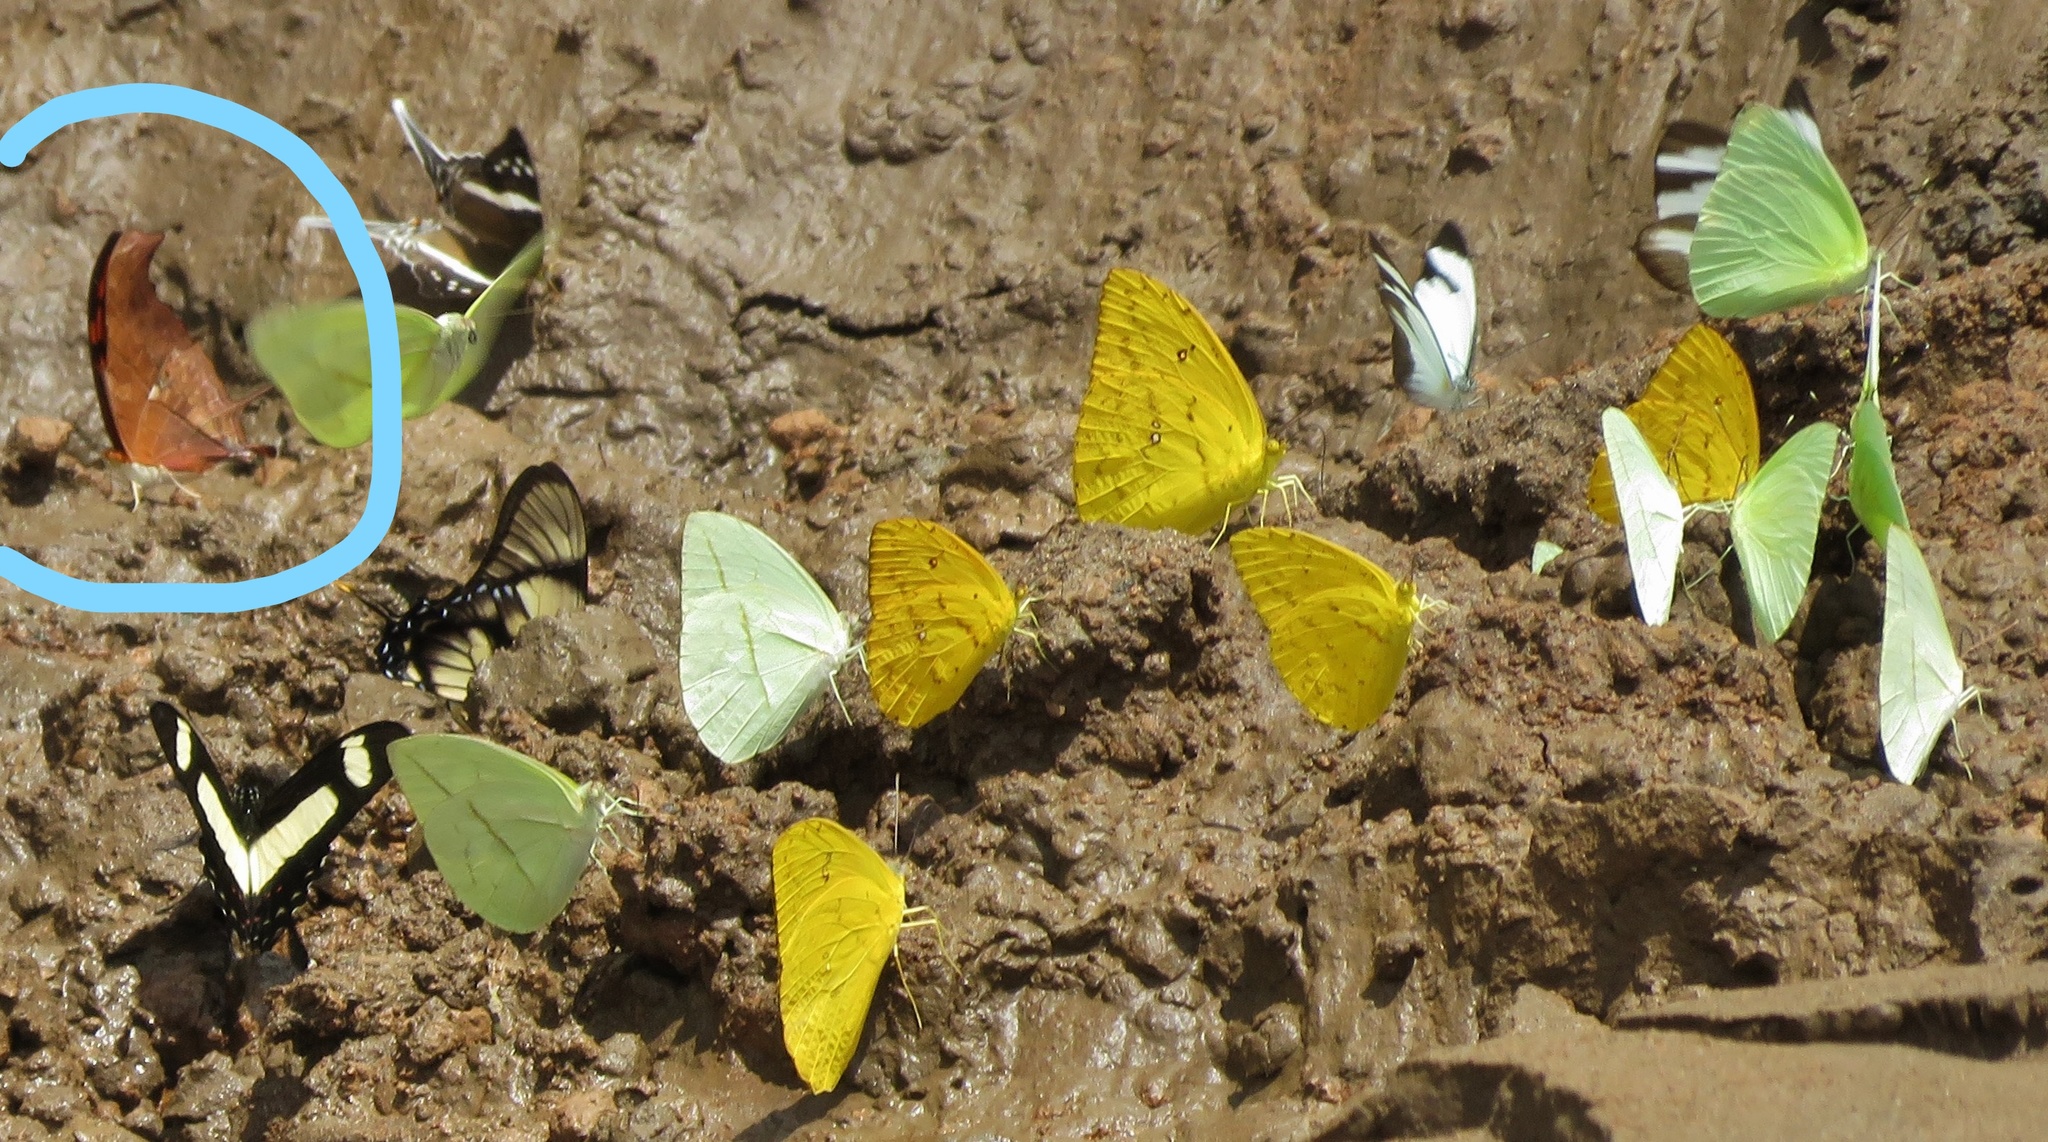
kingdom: Animalia
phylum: Arthropoda
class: Insecta
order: Lepidoptera
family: Nymphalidae
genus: Marpesia
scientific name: Marpesia petreus
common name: Red dagger wing
